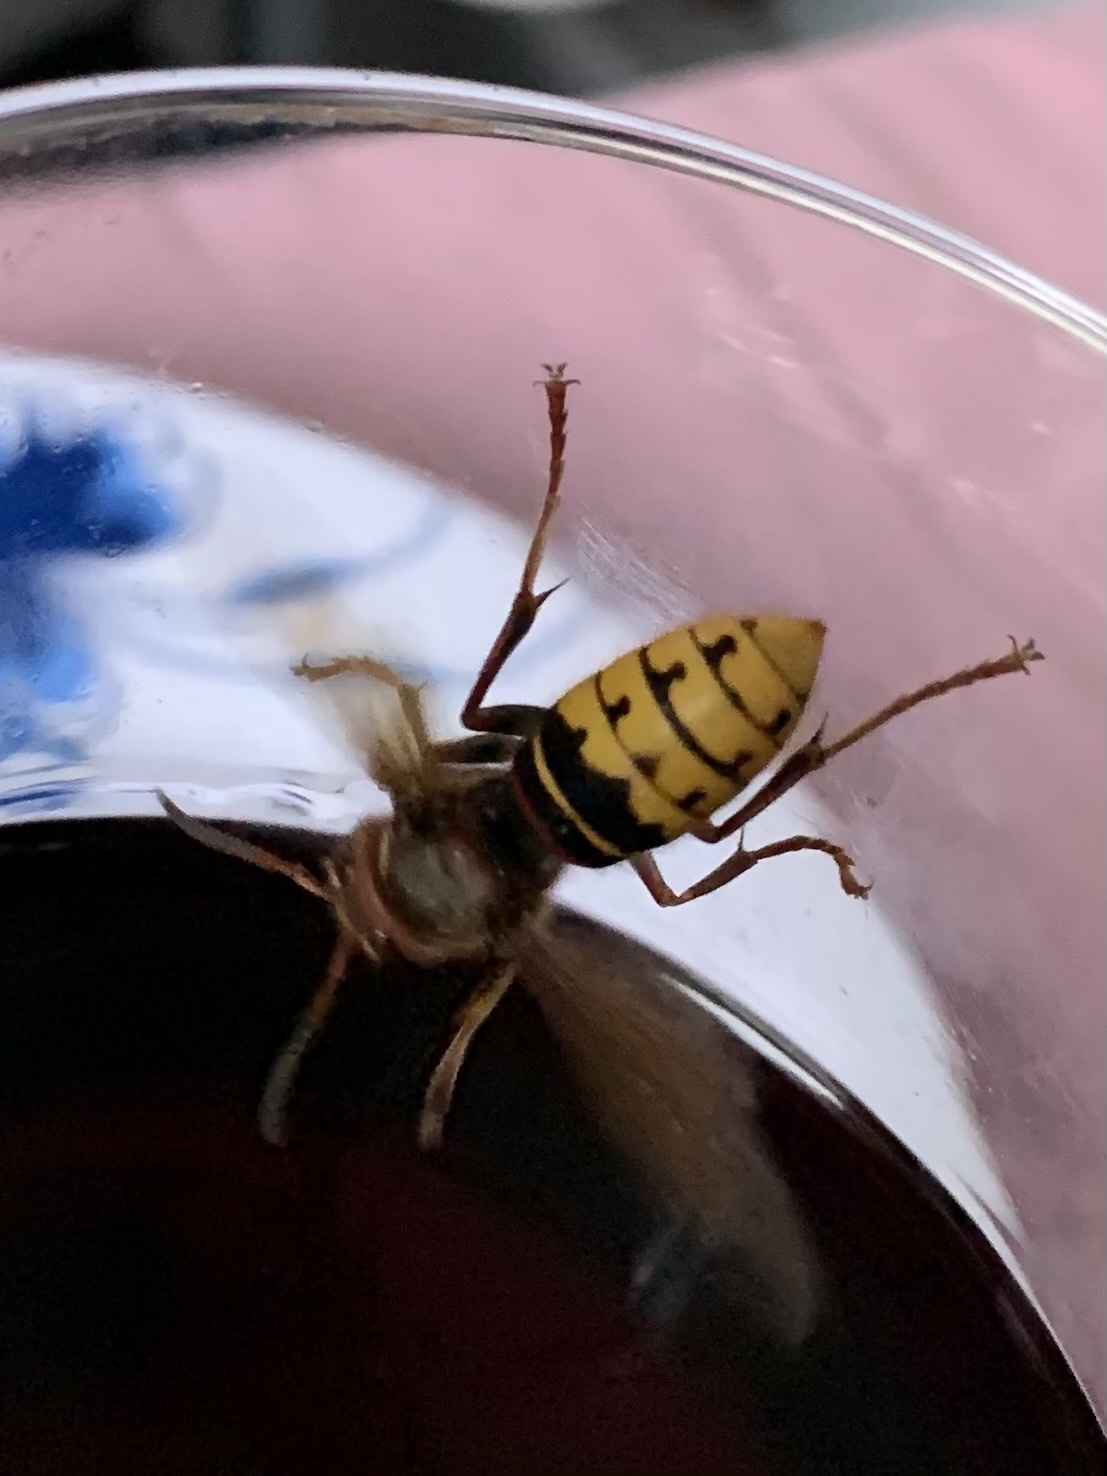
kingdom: Animalia
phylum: Arthropoda
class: Insecta
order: Hymenoptera
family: Vespidae
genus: Vespa
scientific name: Vespa crabro
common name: Hornet
